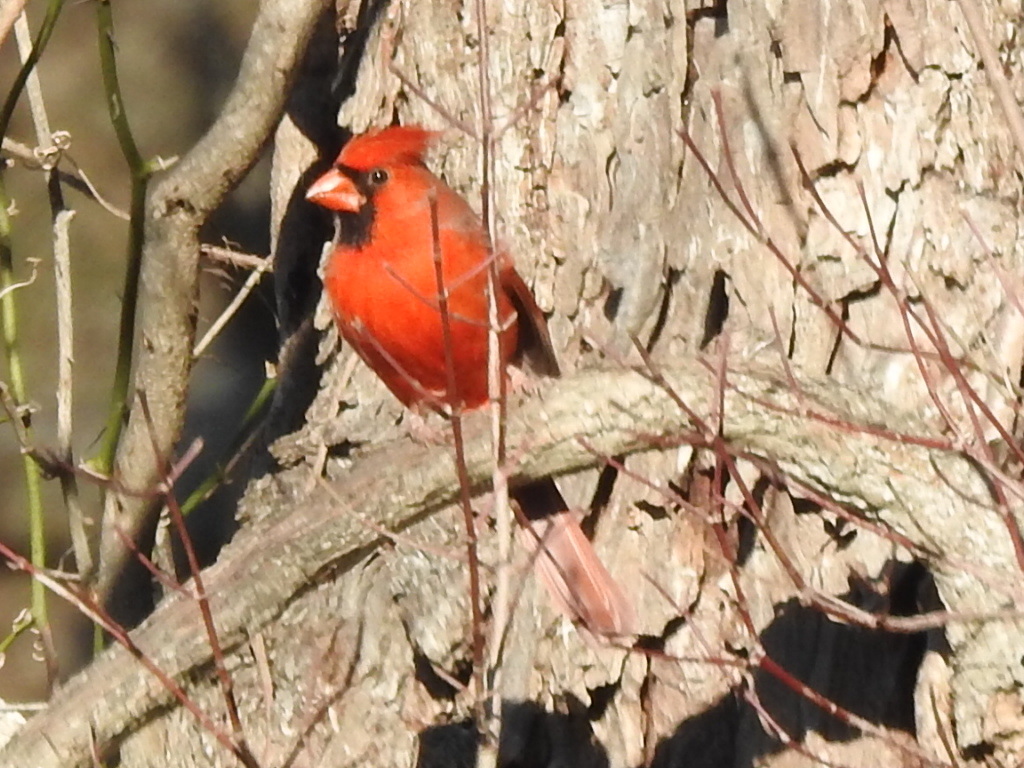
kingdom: Animalia
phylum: Chordata
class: Aves
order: Passeriformes
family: Cardinalidae
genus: Cardinalis
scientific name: Cardinalis cardinalis
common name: Northern cardinal
